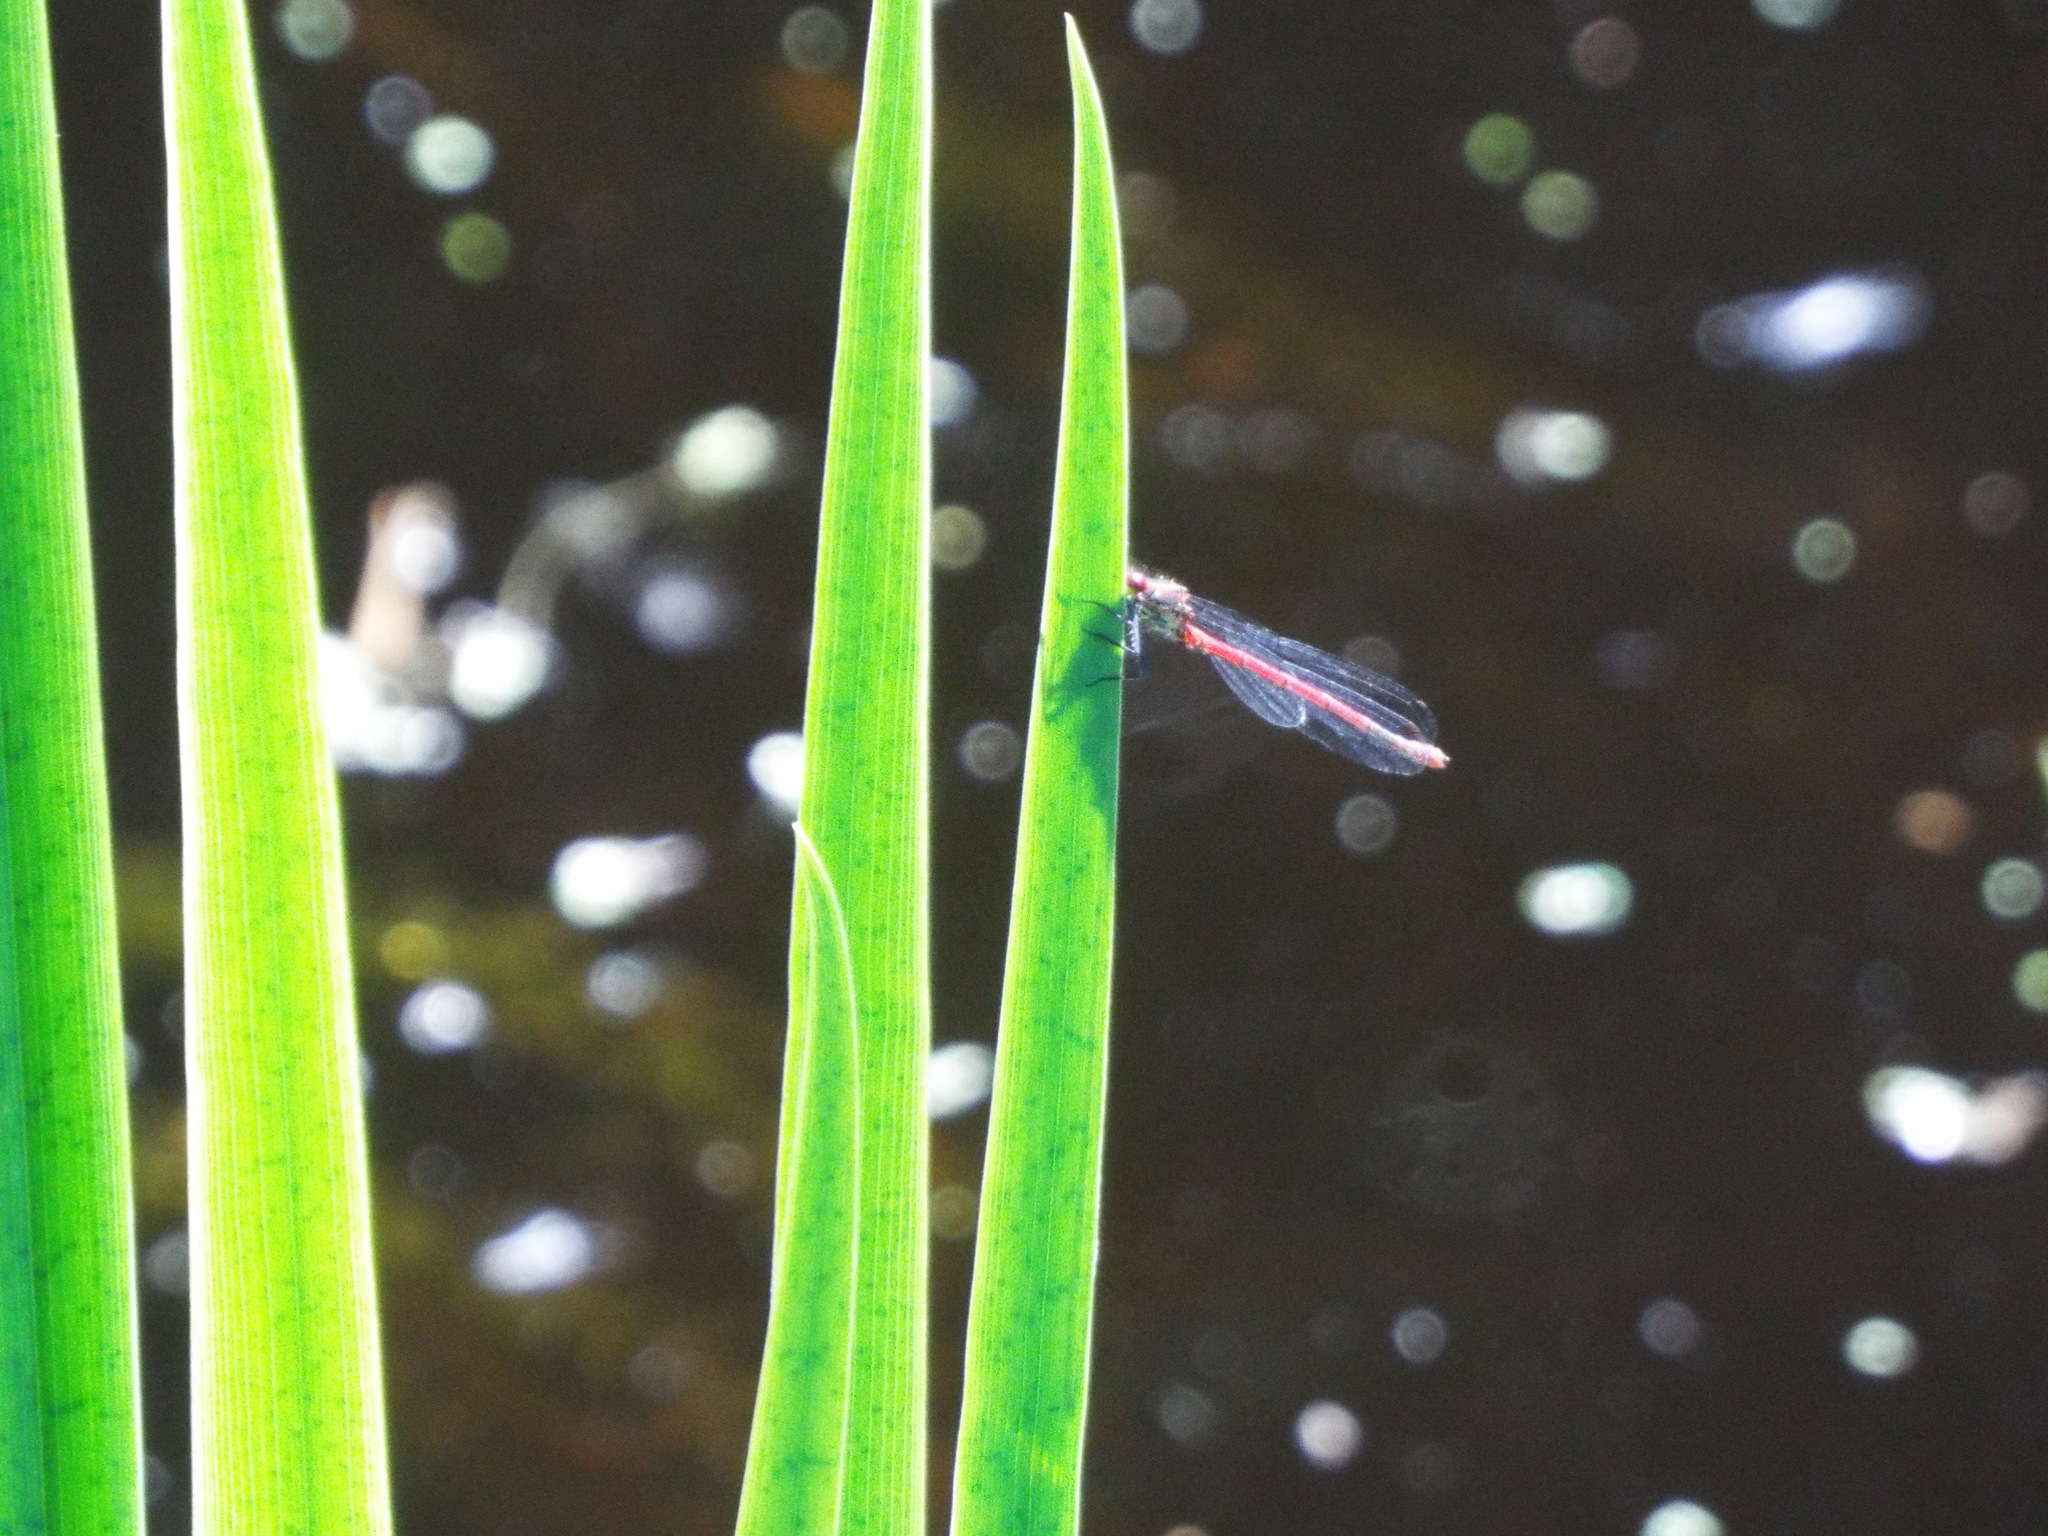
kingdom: Animalia
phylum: Arthropoda
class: Insecta
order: Odonata
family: Coenagrionidae
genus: Pyrrhosoma
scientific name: Pyrrhosoma nymphula
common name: Large red damsel
